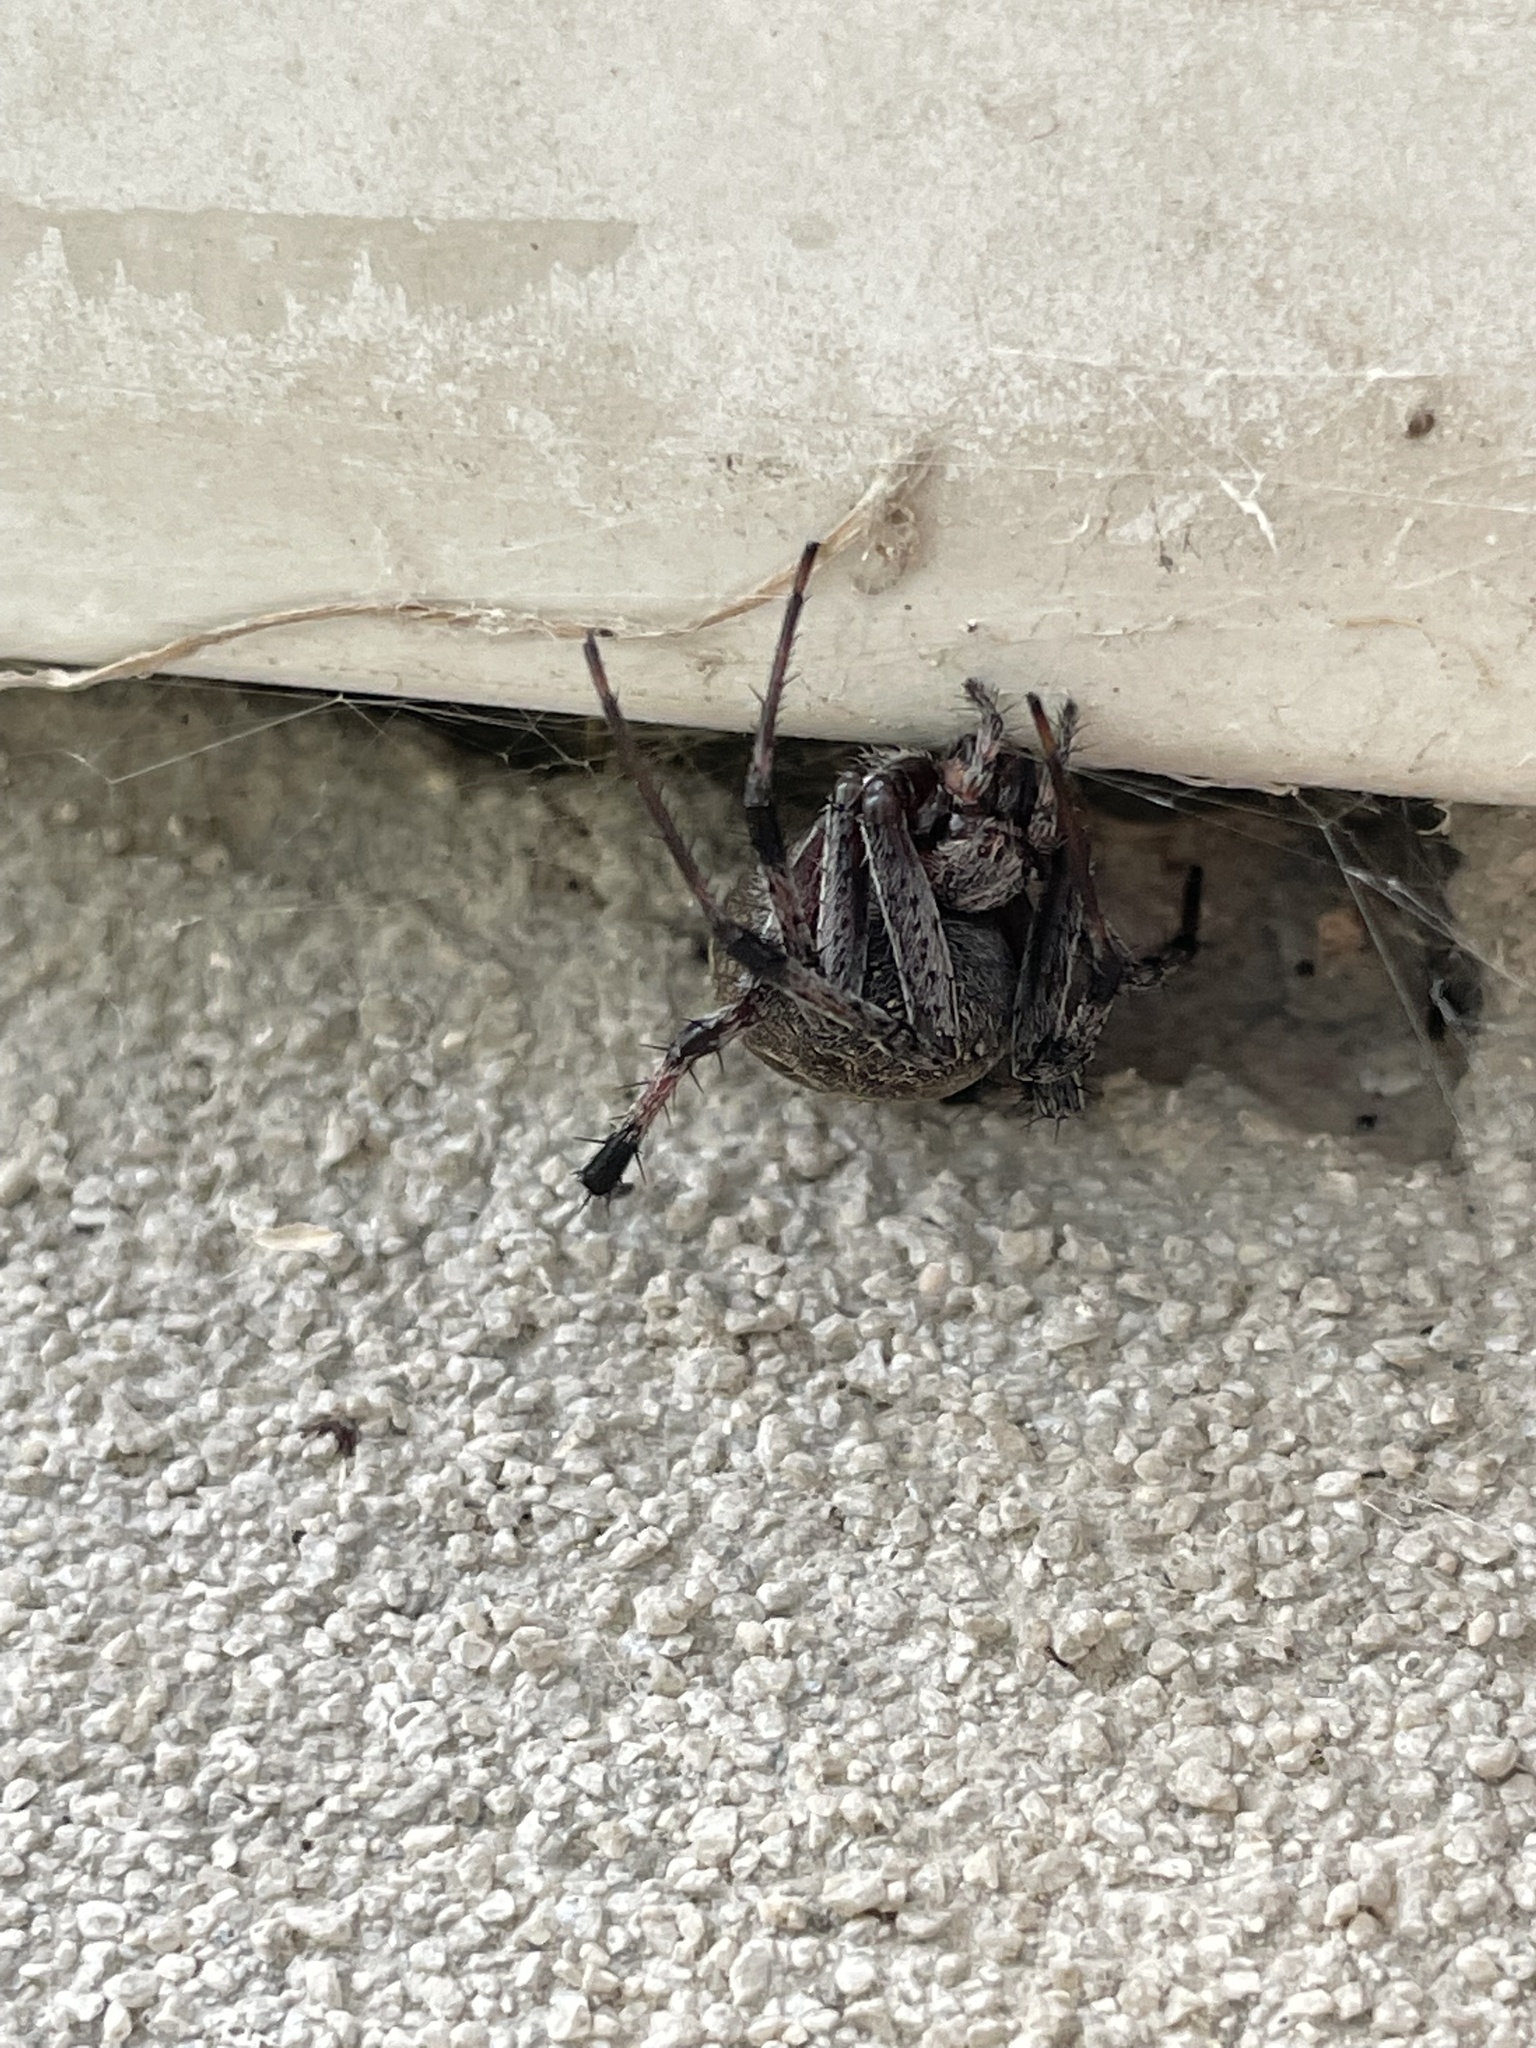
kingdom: Animalia
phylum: Arthropoda
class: Arachnida
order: Araneae
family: Araneidae
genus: Neoscona
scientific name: Neoscona oaxacensis
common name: Orb weavers
